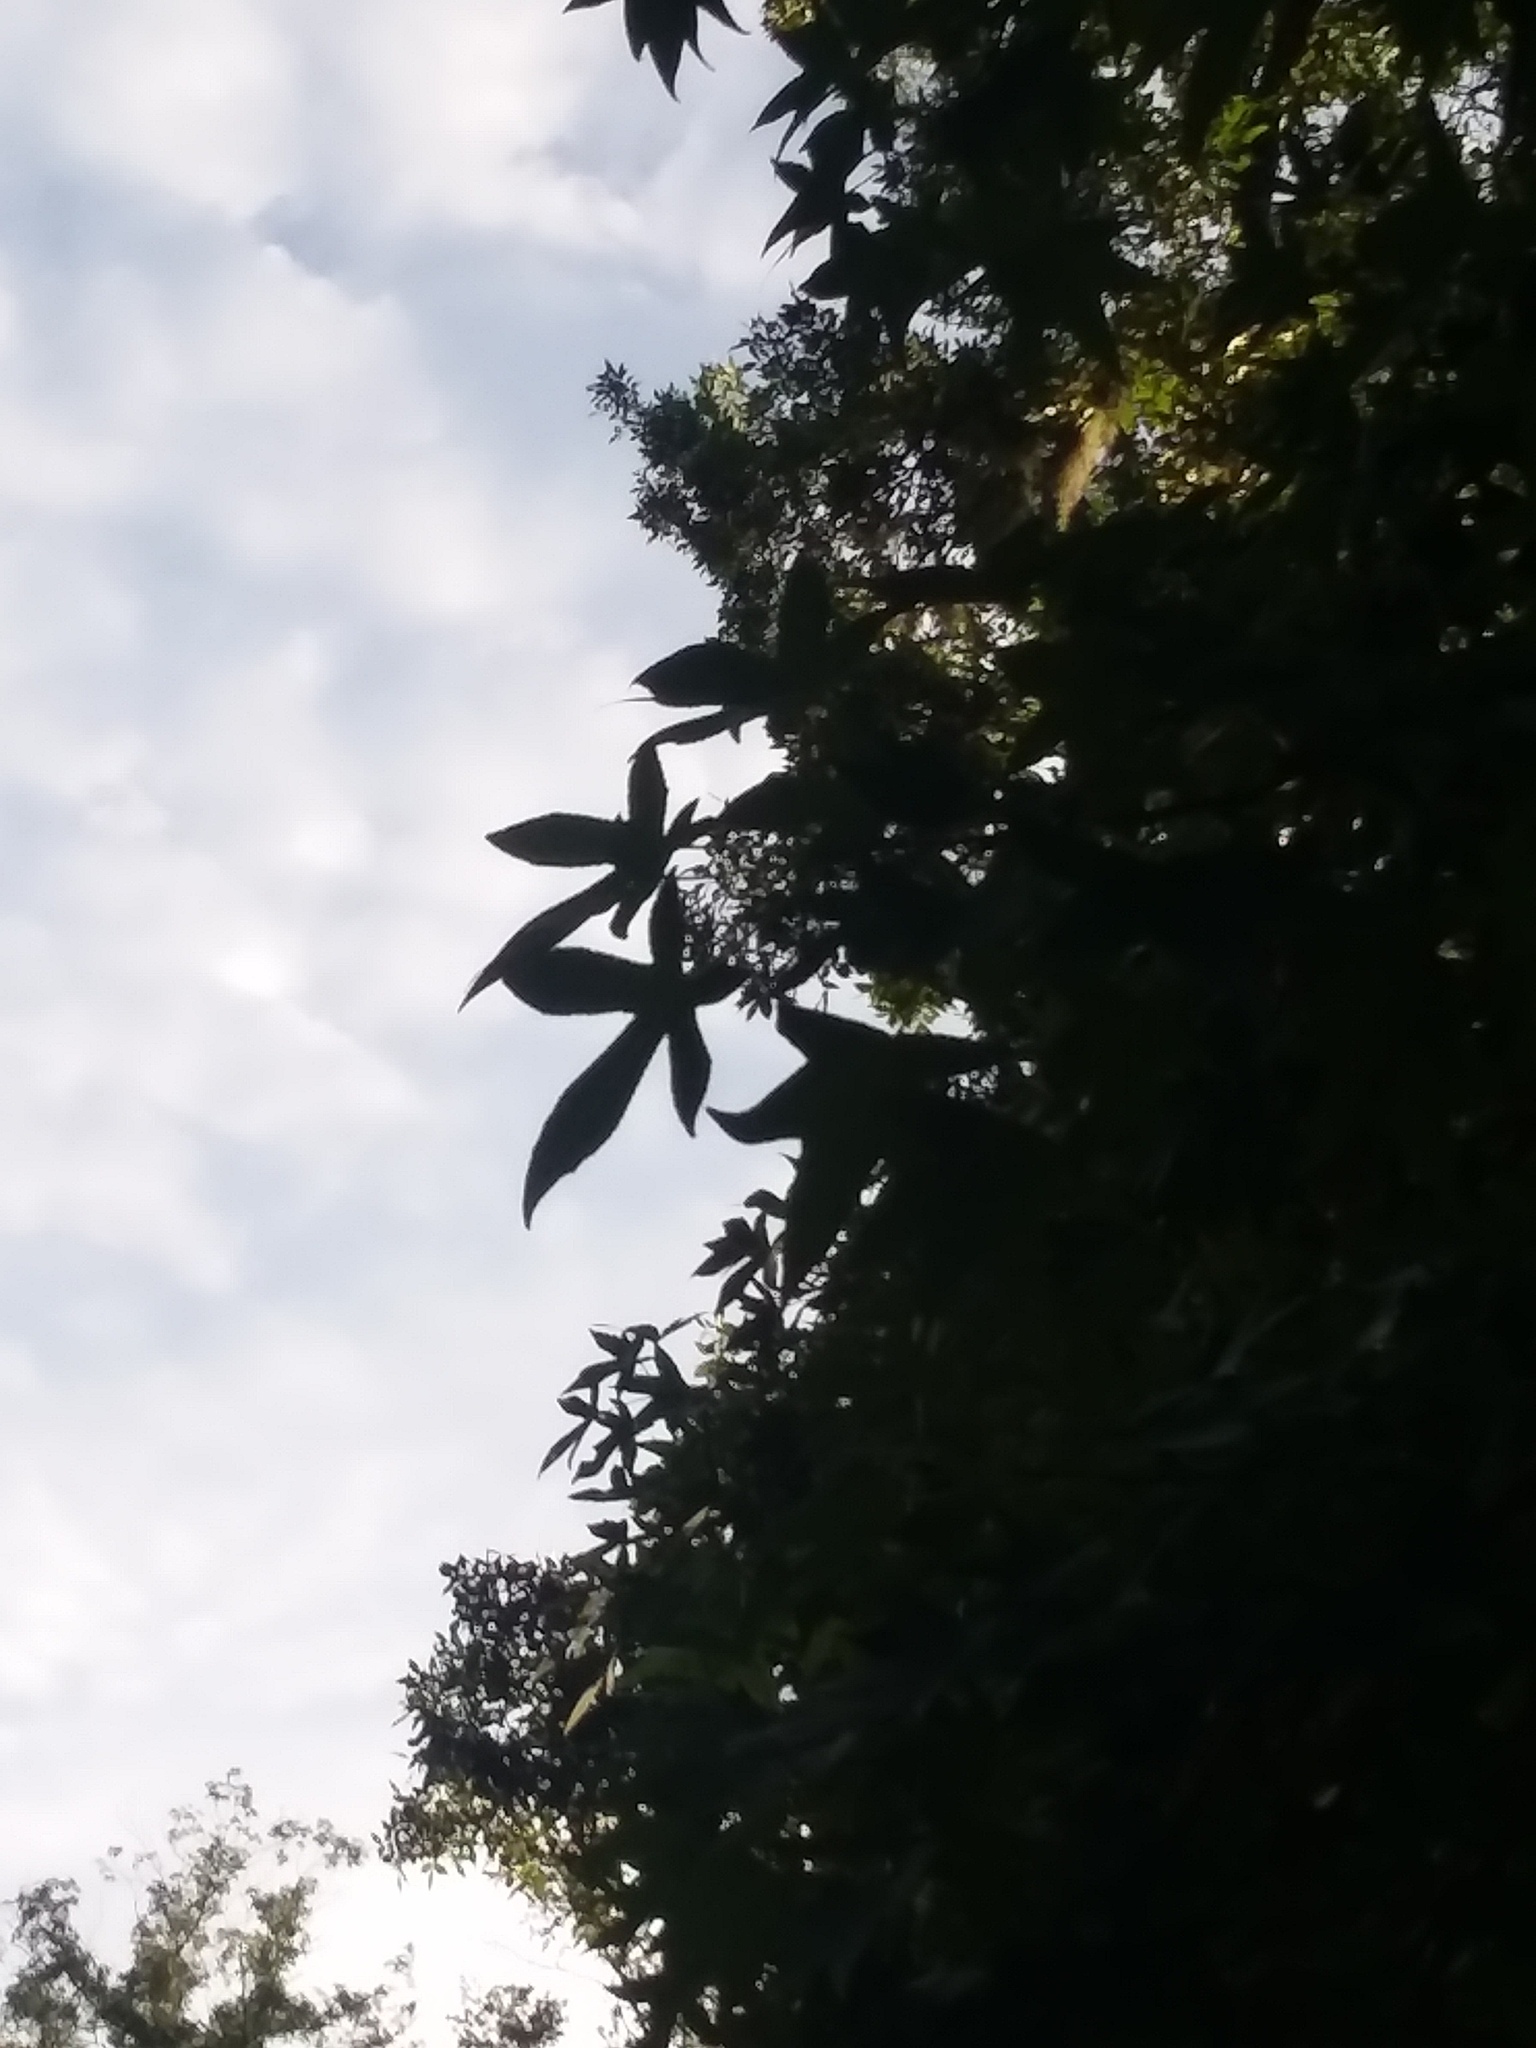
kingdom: Plantae
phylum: Tracheophyta
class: Magnoliopsida
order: Saxifragales
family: Altingiaceae
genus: Liquidambar
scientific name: Liquidambar styraciflua
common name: Sweet gum
